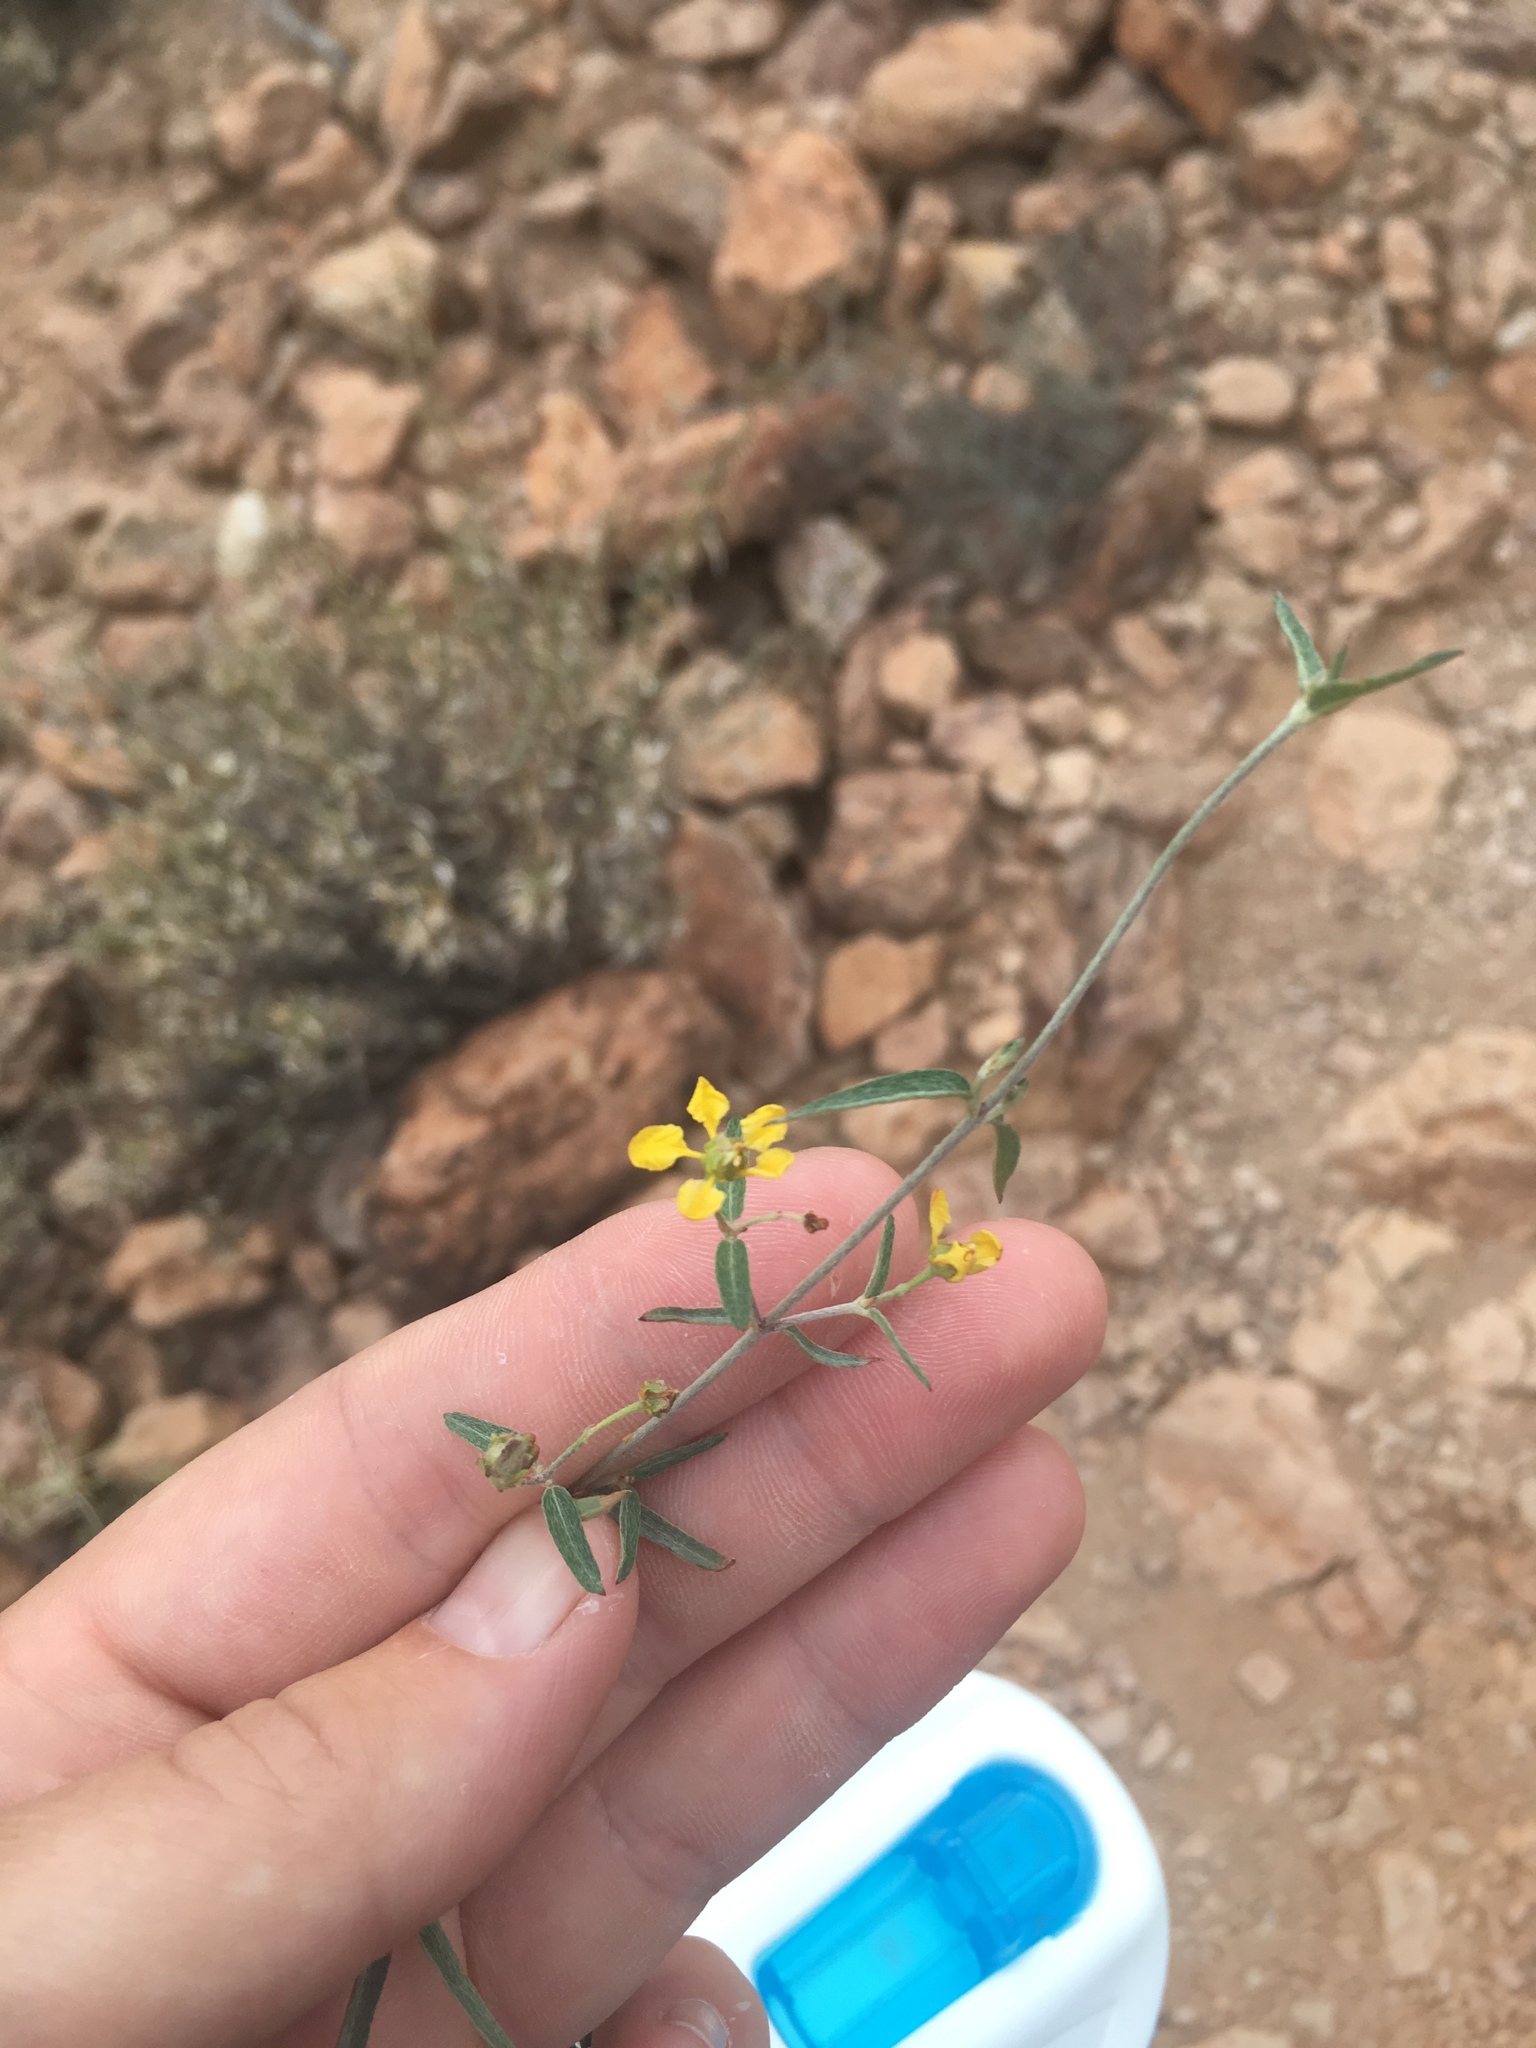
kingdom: Plantae
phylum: Tracheophyta
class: Magnoliopsida
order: Malpighiales
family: Malpighiaceae
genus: Cottsia
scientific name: Cottsia gracilis
